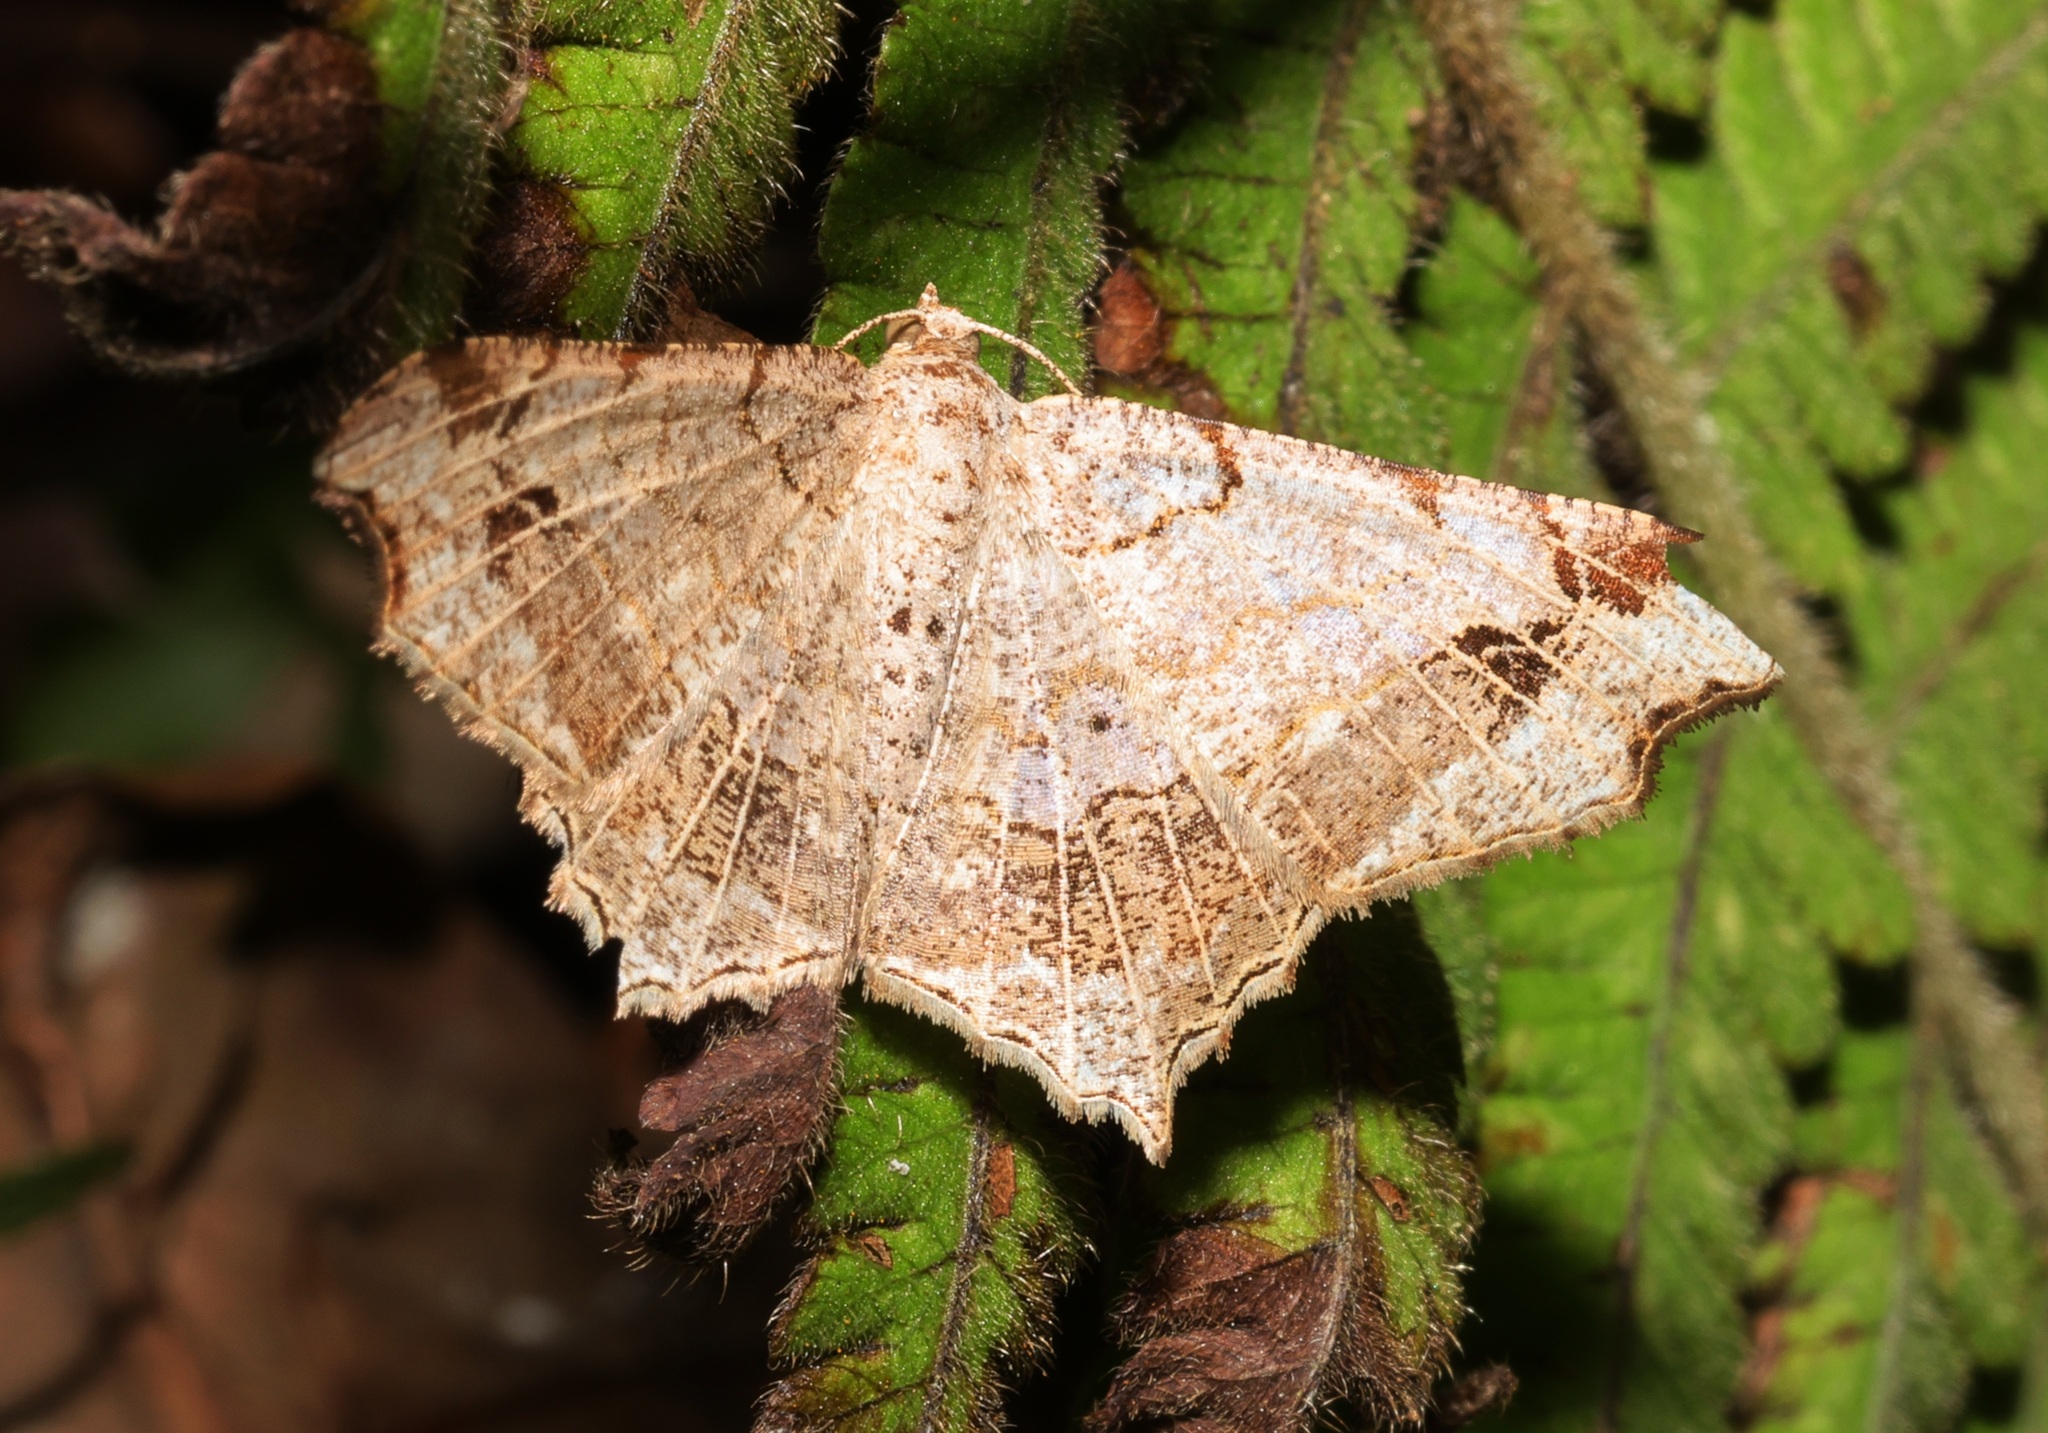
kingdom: Animalia
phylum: Arthropoda
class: Insecta
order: Lepidoptera
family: Geometridae
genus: Chiasmia
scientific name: Chiasmia emersaria
